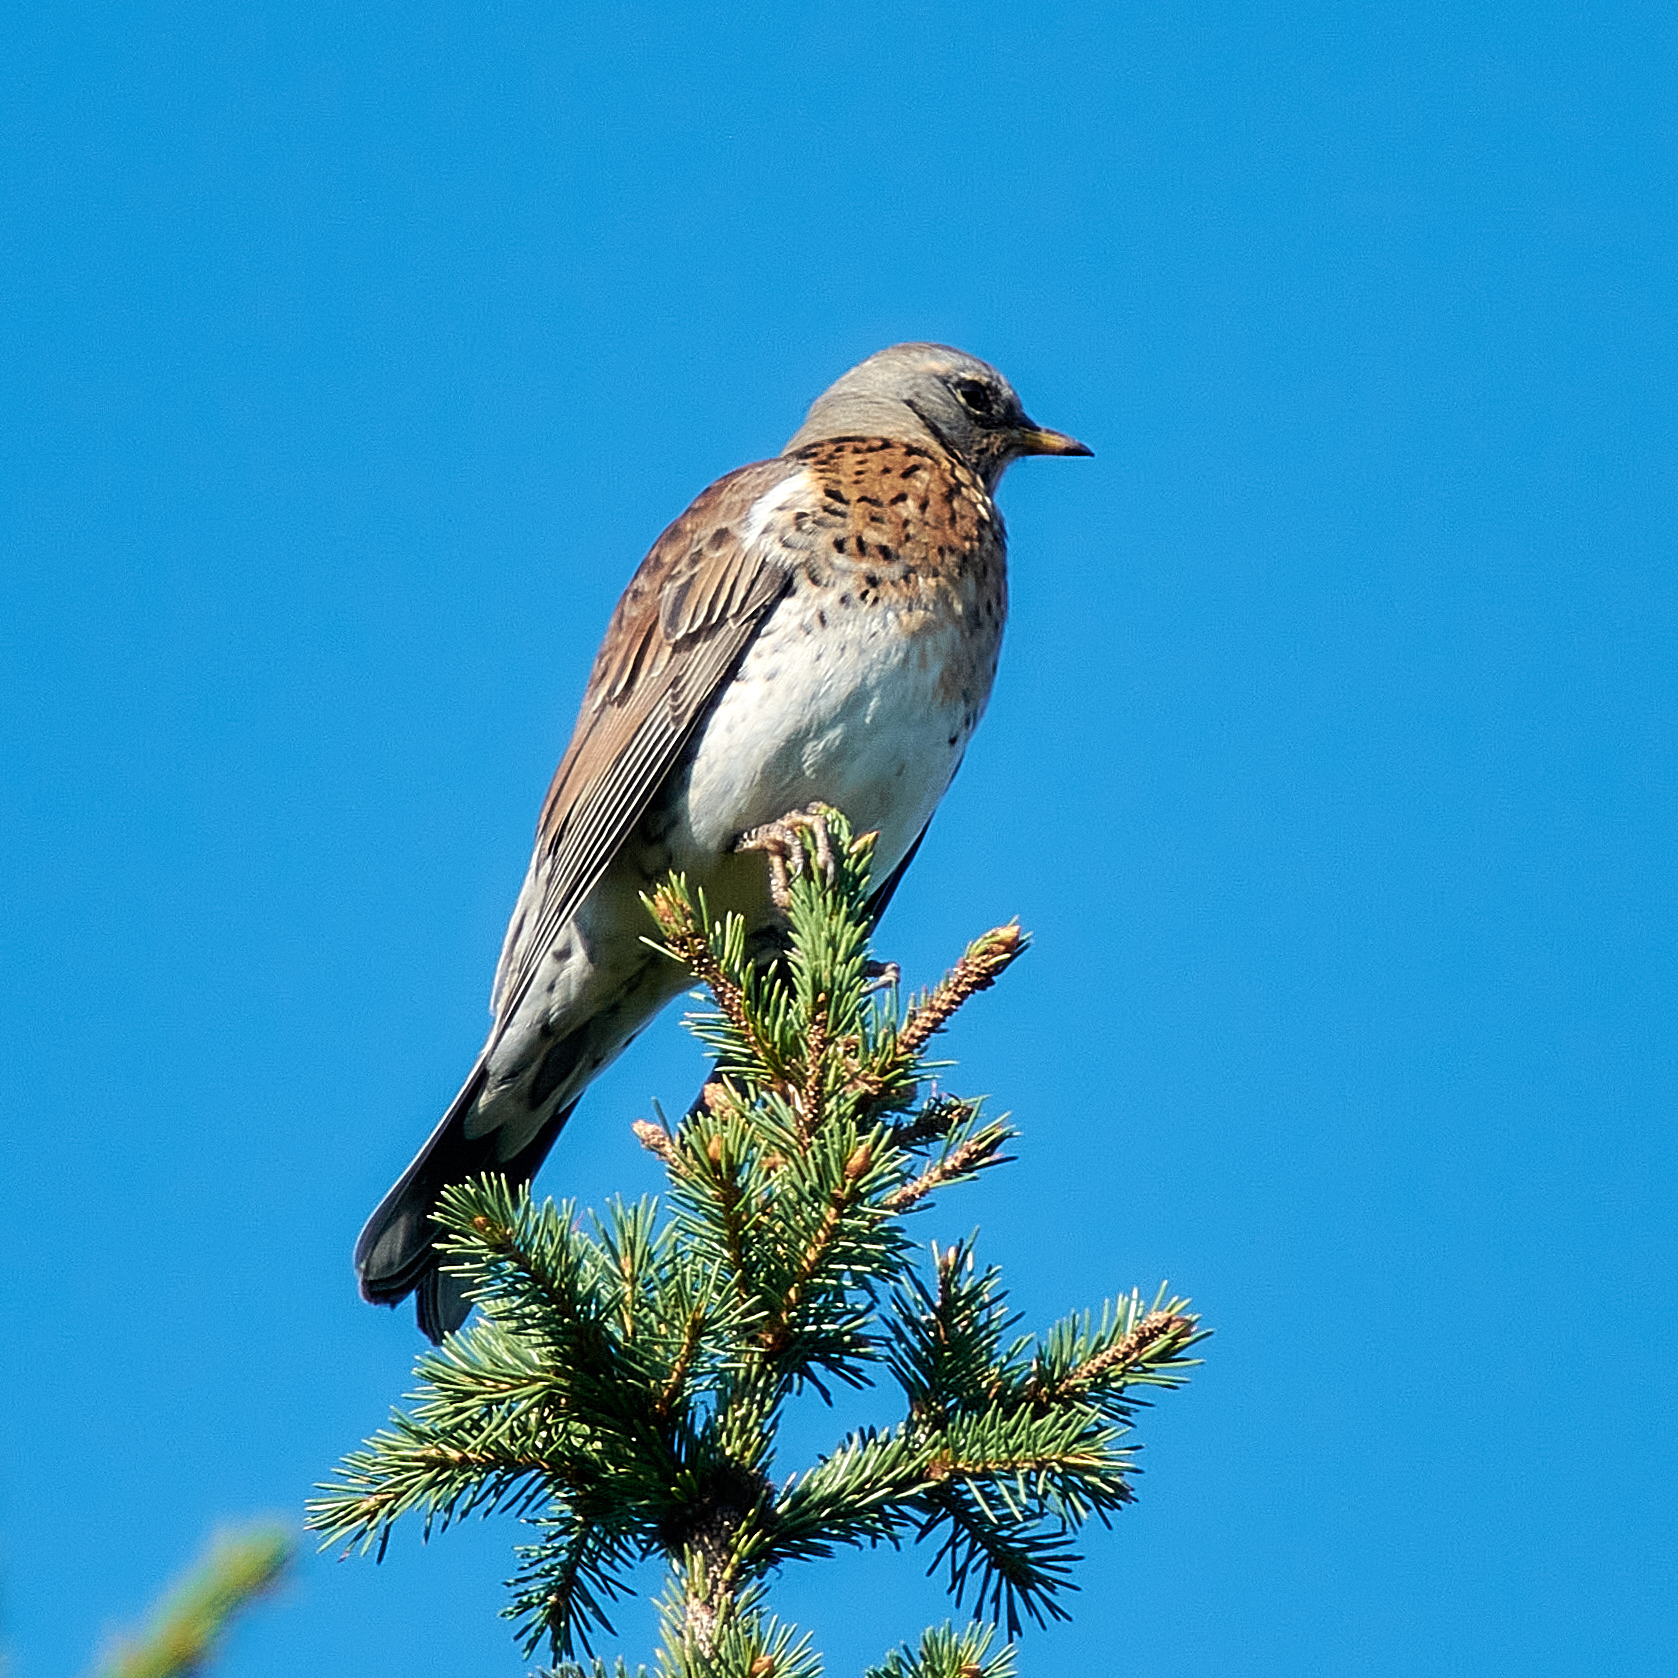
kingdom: Animalia
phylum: Chordata
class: Aves
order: Passeriformes
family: Turdidae
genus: Turdus
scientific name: Turdus pilaris
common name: Fieldfare
